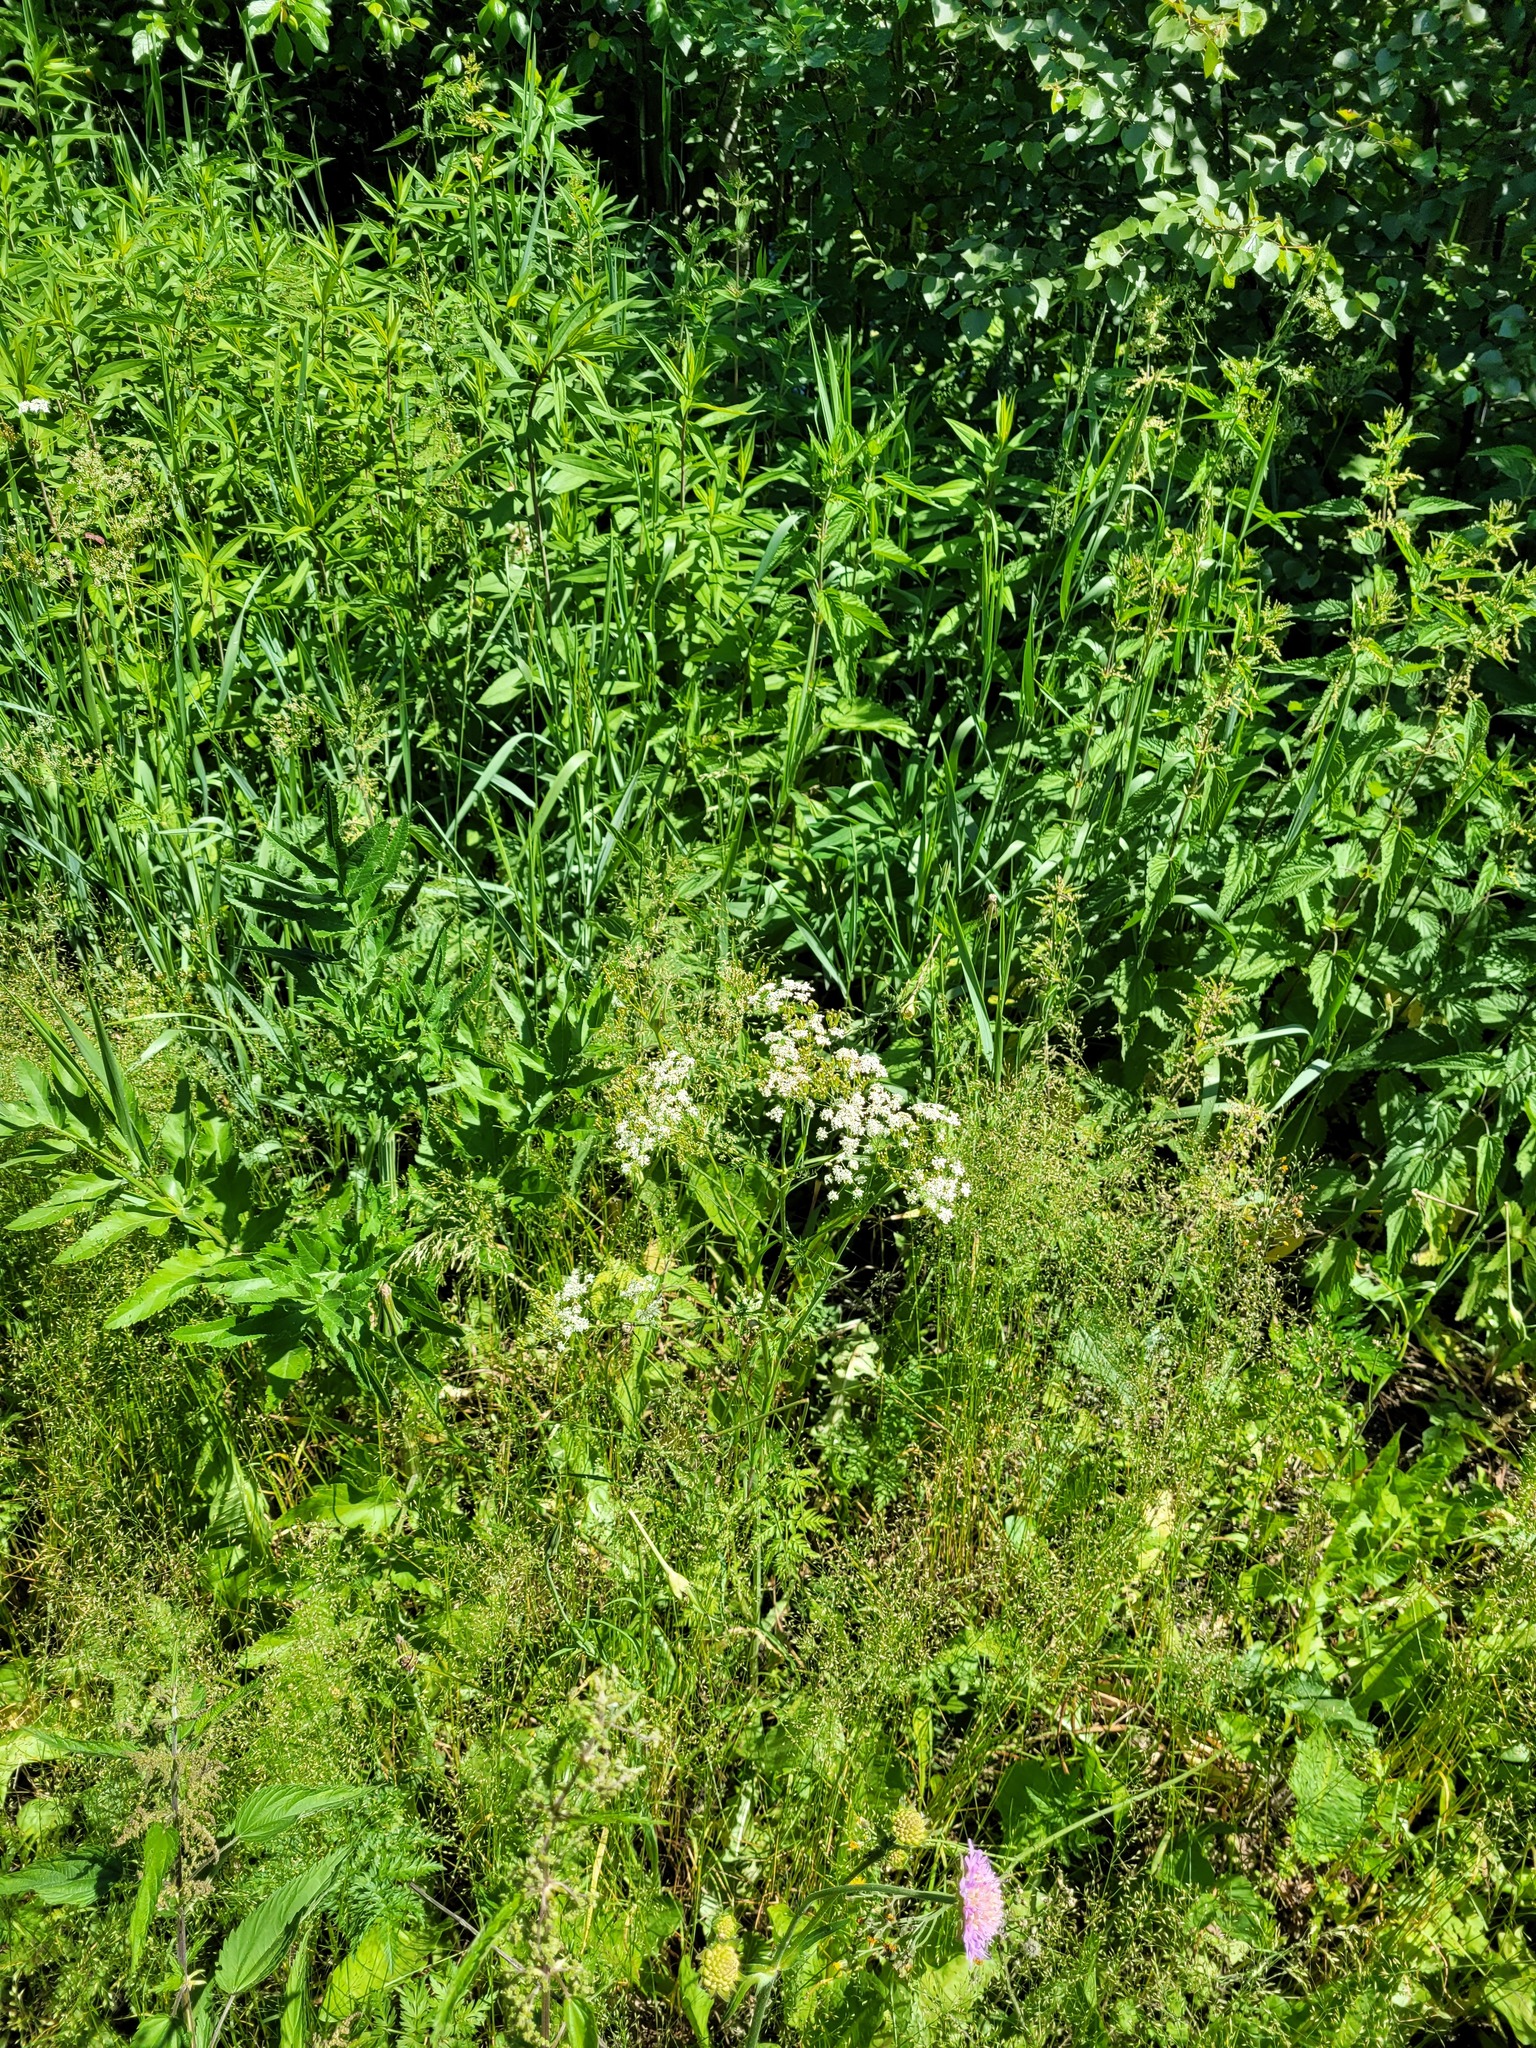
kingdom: Plantae
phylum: Tracheophyta
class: Magnoliopsida
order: Apiales
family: Apiaceae
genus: Anthriscus
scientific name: Anthriscus sylvestris
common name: Cow parsley
